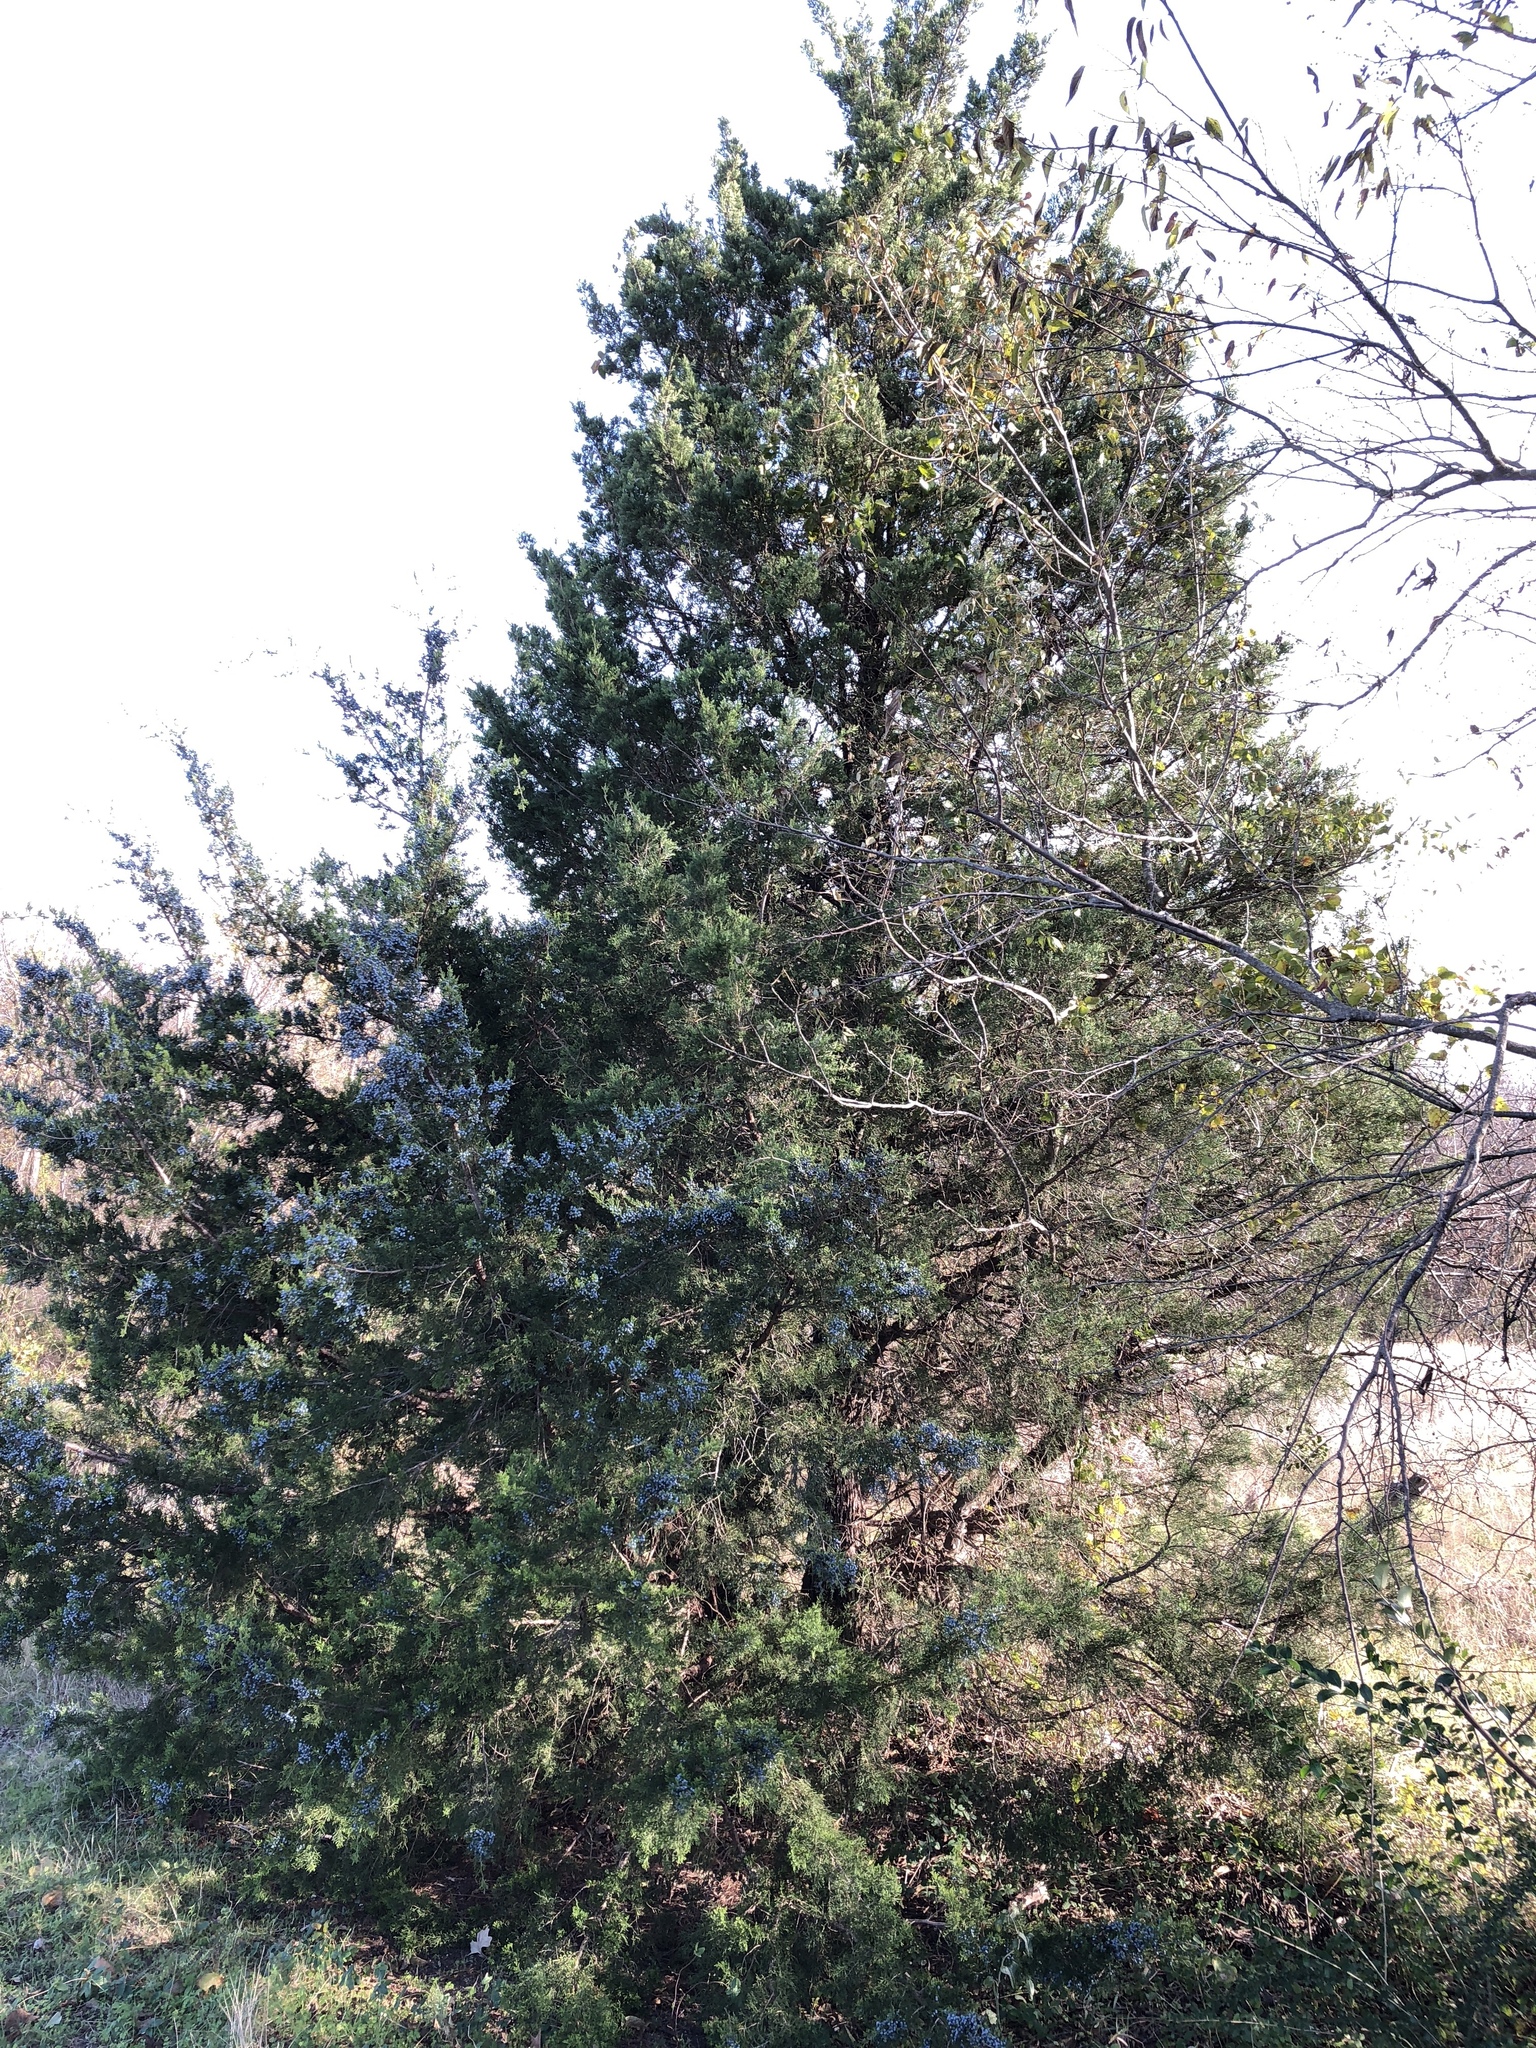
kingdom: Plantae
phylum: Tracheophyta
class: Pinopsida
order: Pinales
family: Cupressaceae
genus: Juniperus
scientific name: Juniperus virginiana
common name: Red juniper
